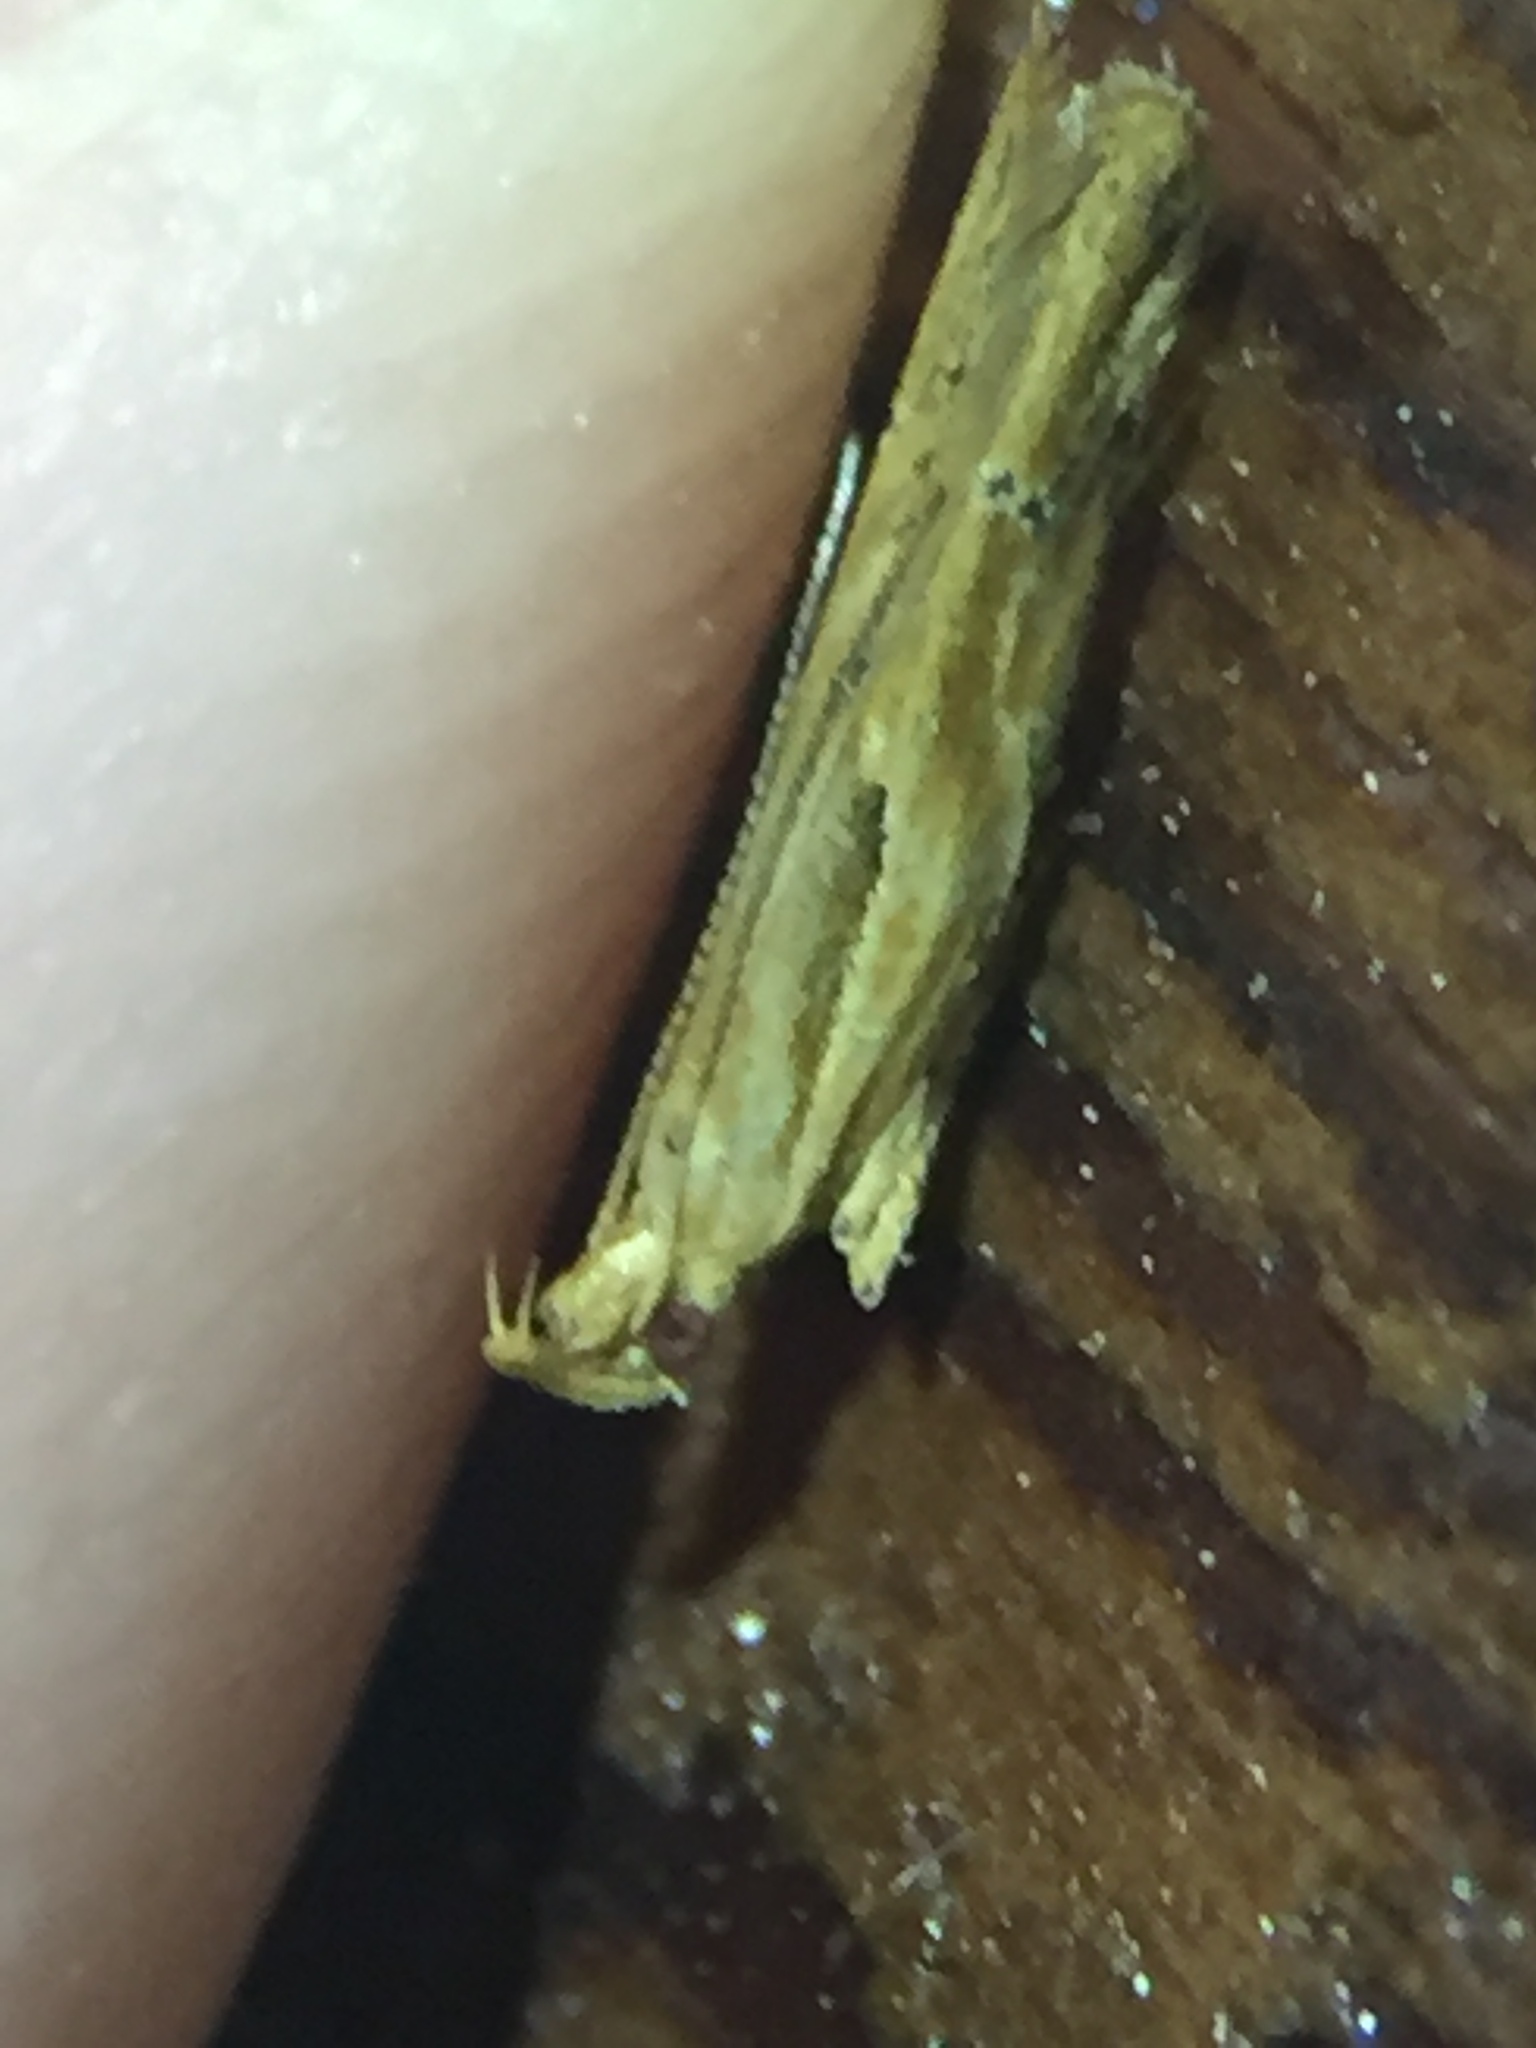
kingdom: Animalia
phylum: Arthropoda
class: Insecta
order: Lepidoptera
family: Depressariidae
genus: Eutorna
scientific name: Eutorna symmorpha
